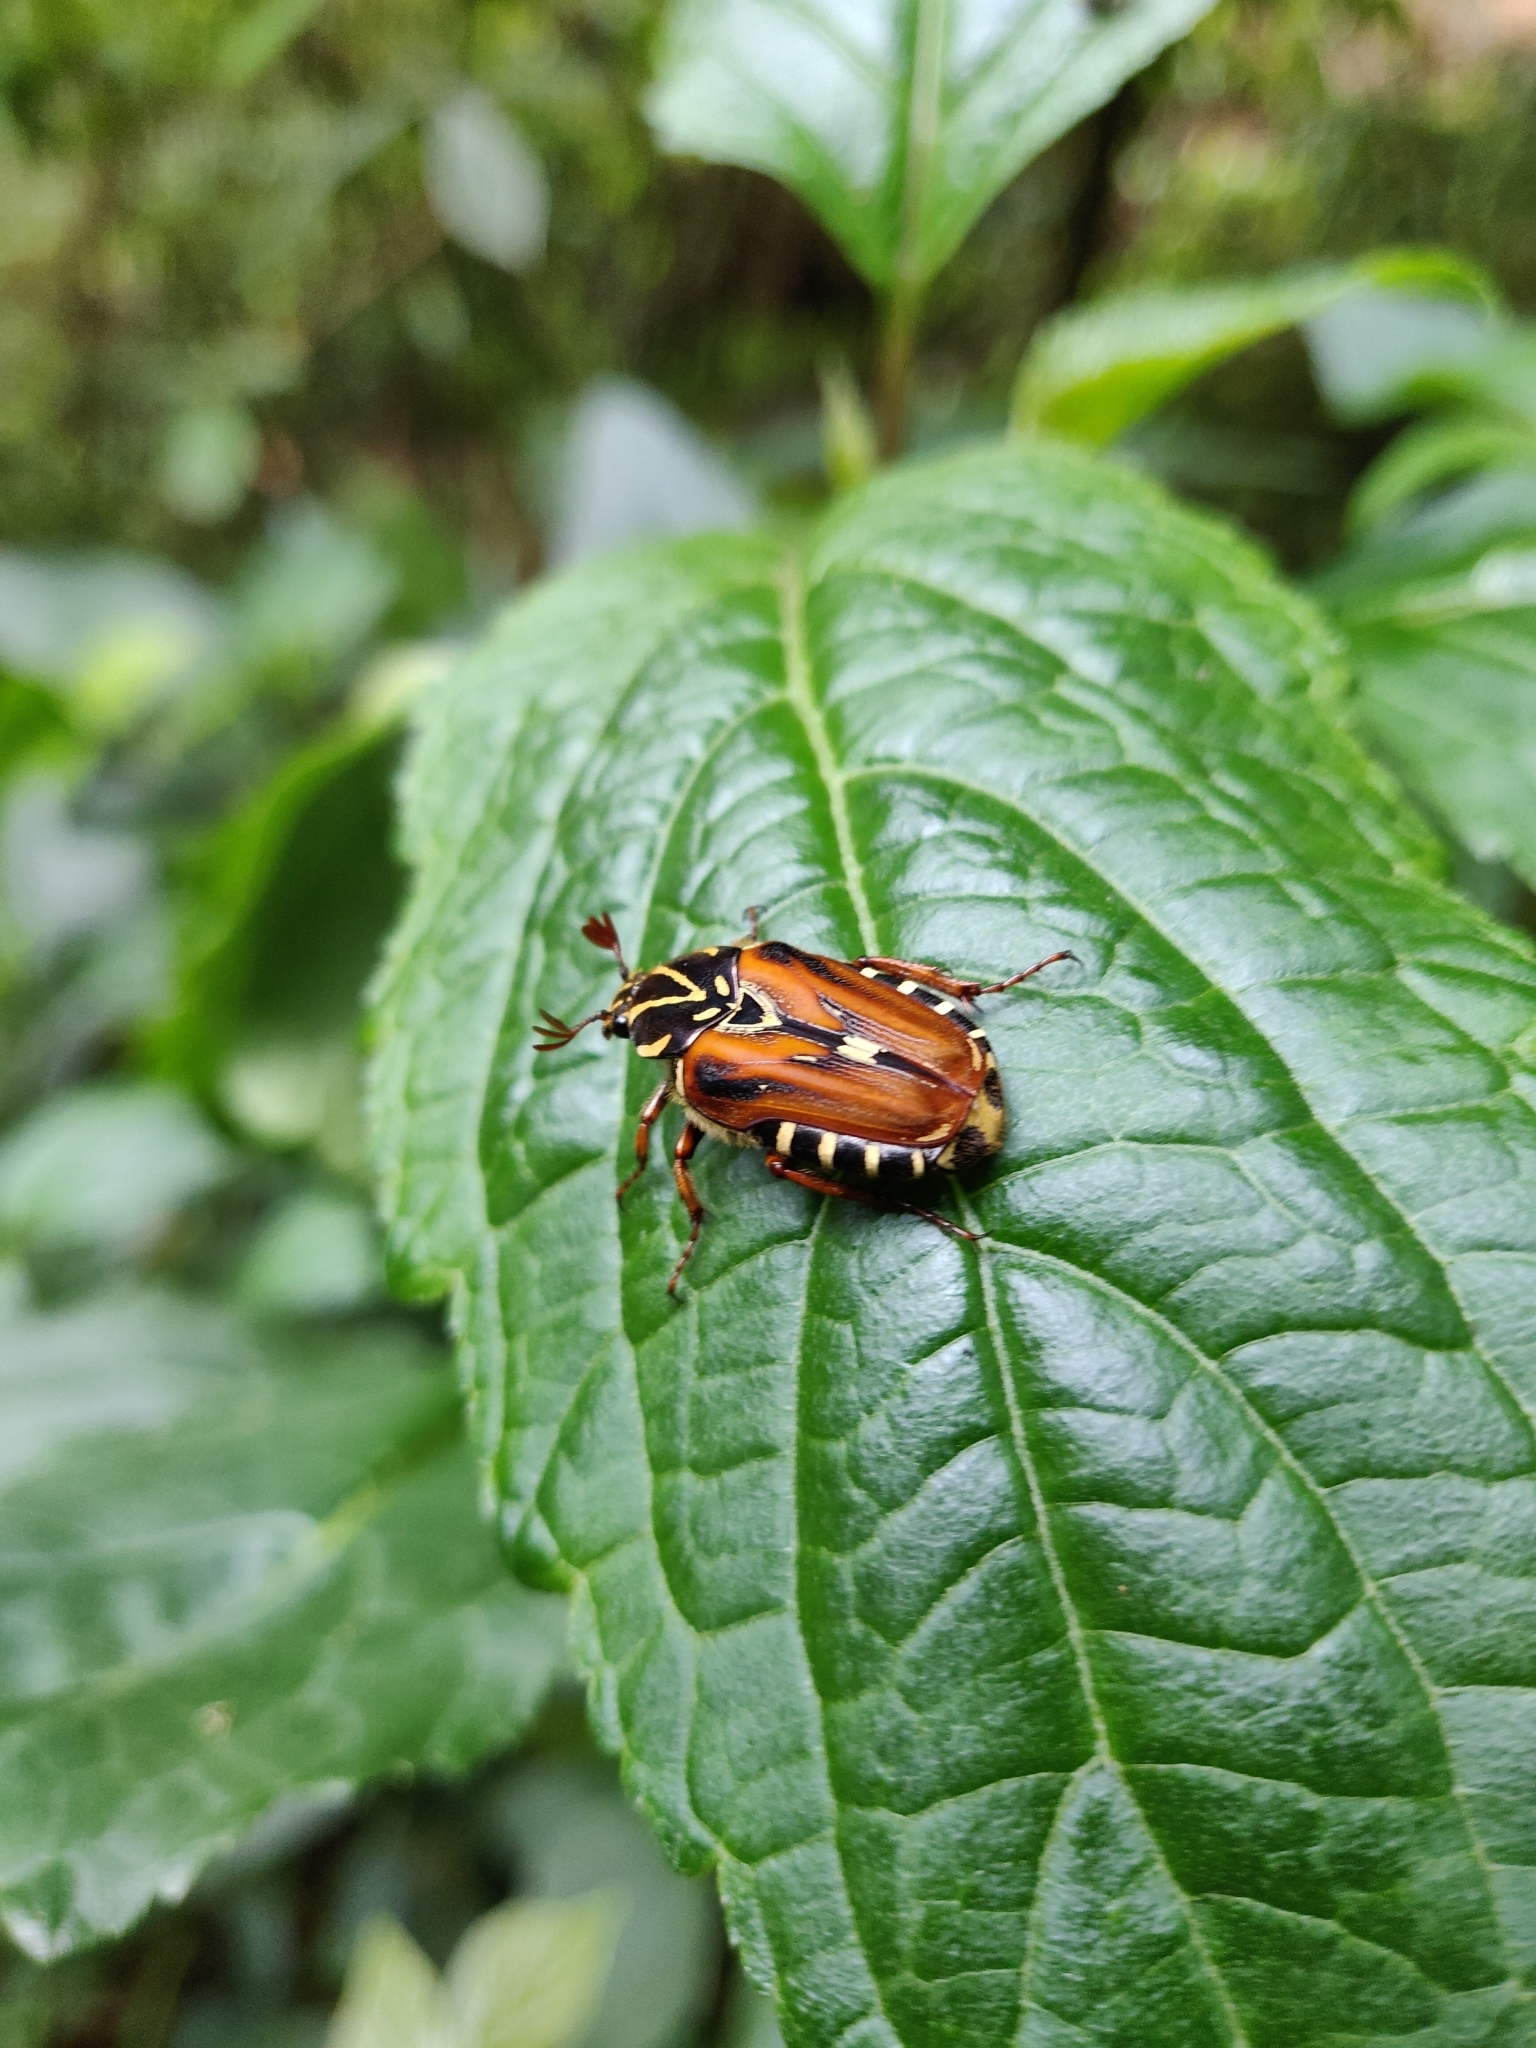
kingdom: Animalia
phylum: Arthropoda
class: Insecta
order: Coleoptera
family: Scarabaeidae
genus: Taeniodera
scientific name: Taeniodera waterhousei
